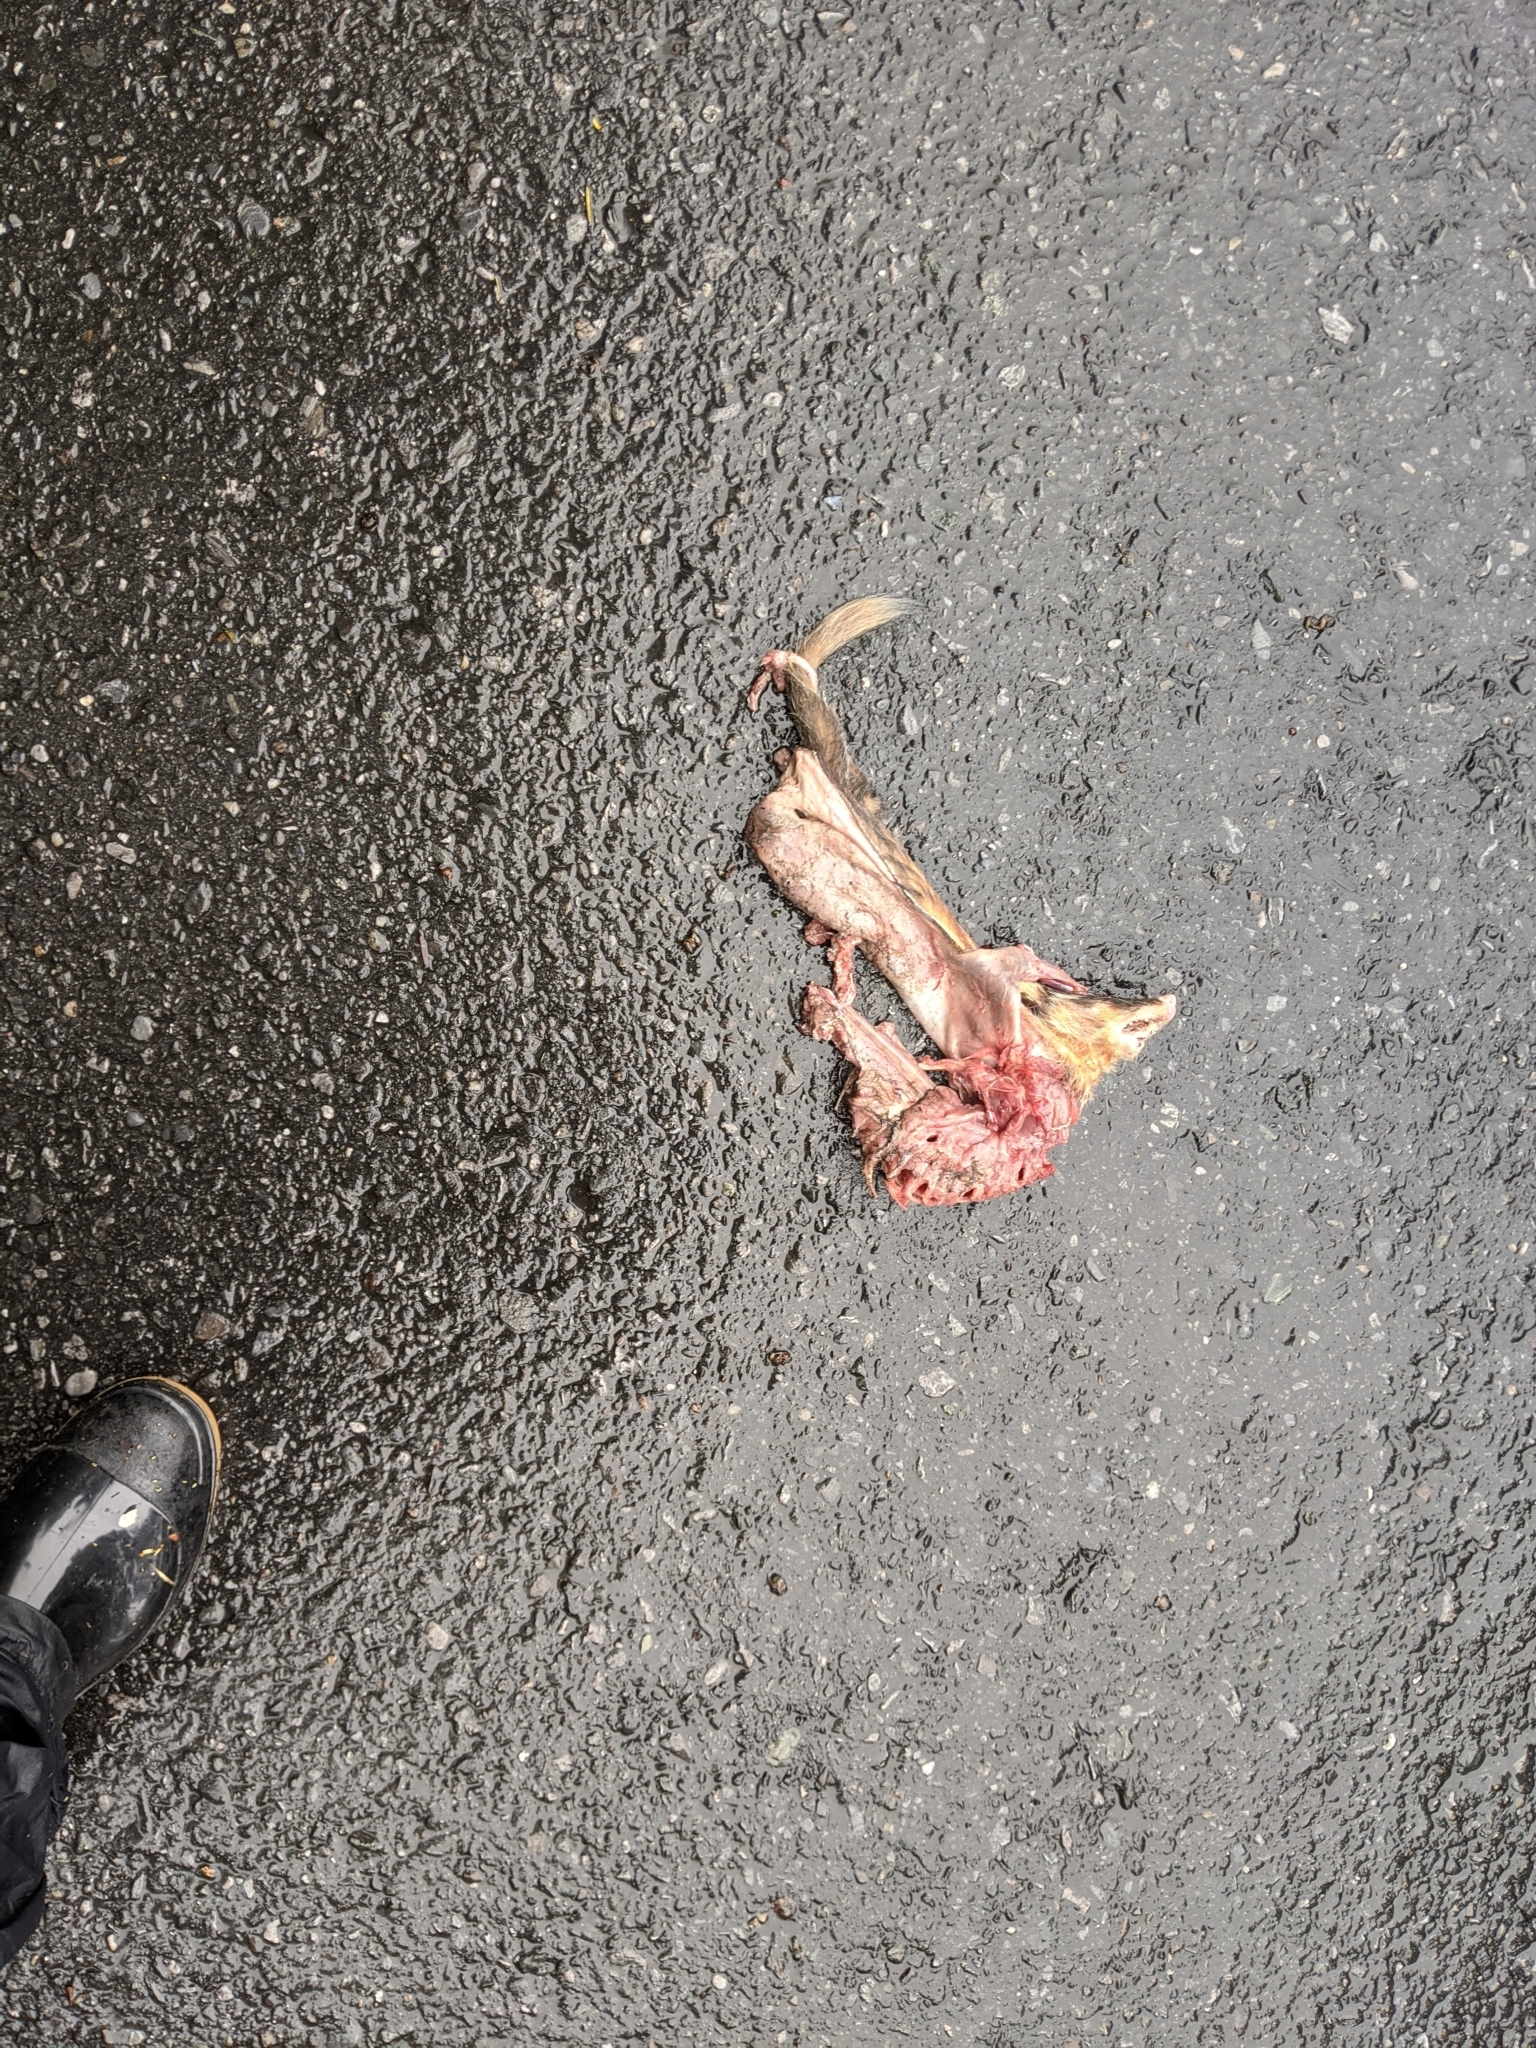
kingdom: Animalia
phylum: Chordata
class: Mammalia
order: Carnivora
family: Mustelidae
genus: Melogale
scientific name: Melogale
